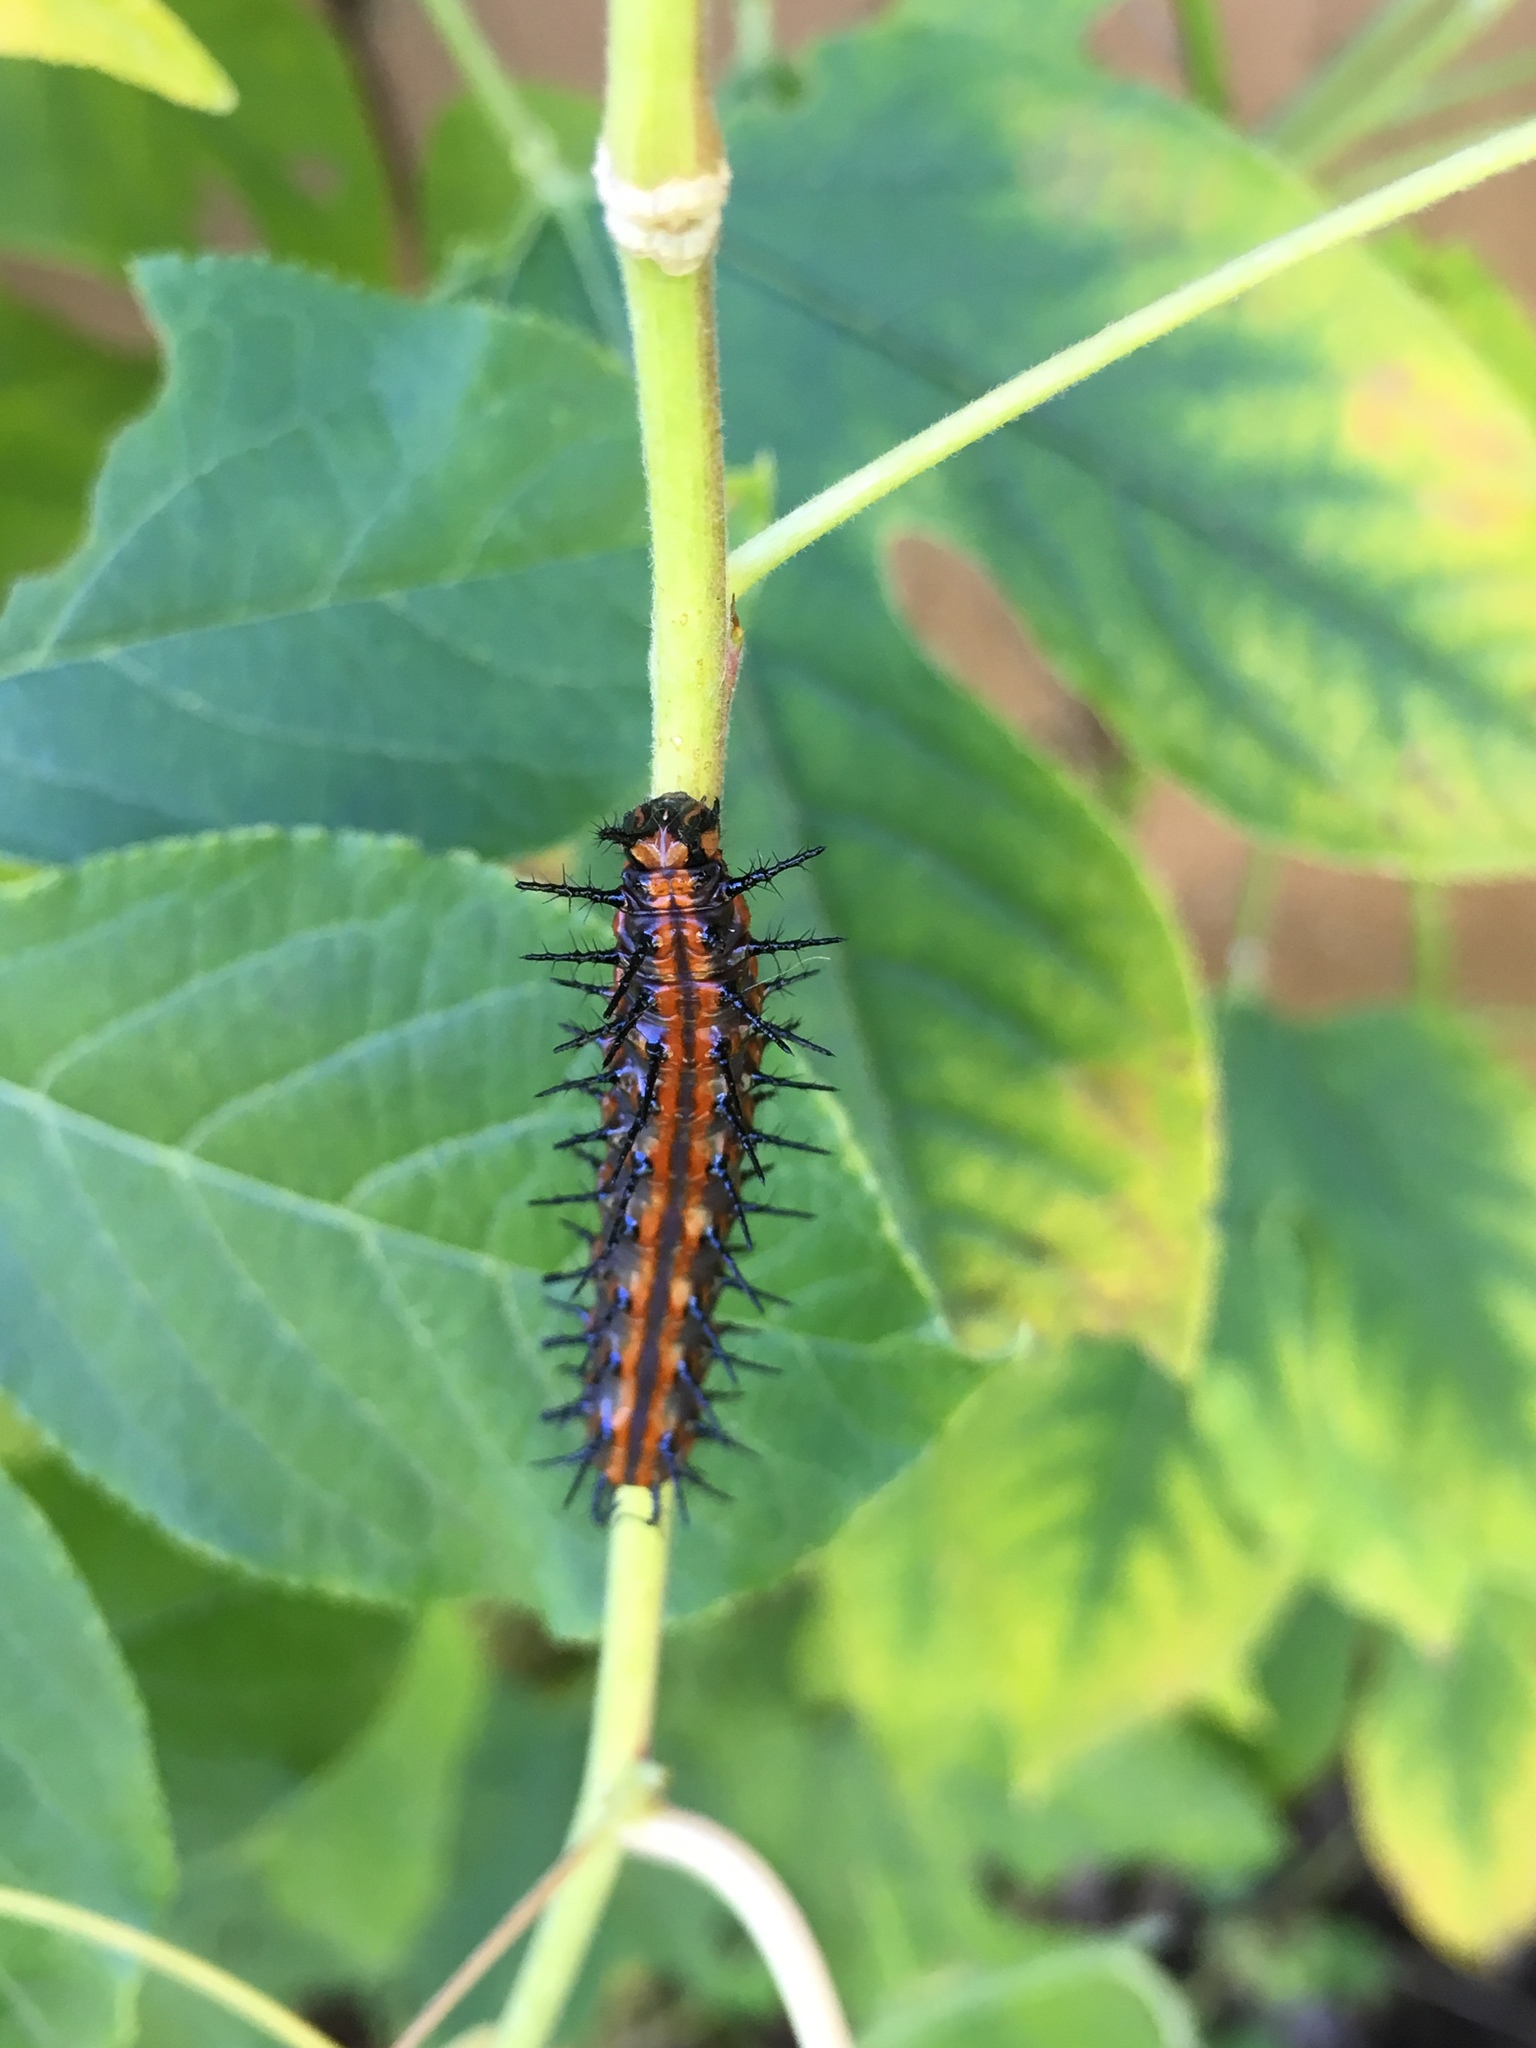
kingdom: Animalia
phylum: Arthropoda
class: Insecta
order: Lepidoptera
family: Nymphalidae
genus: Dione
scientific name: Dione vanillae
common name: Gulf fritillary
